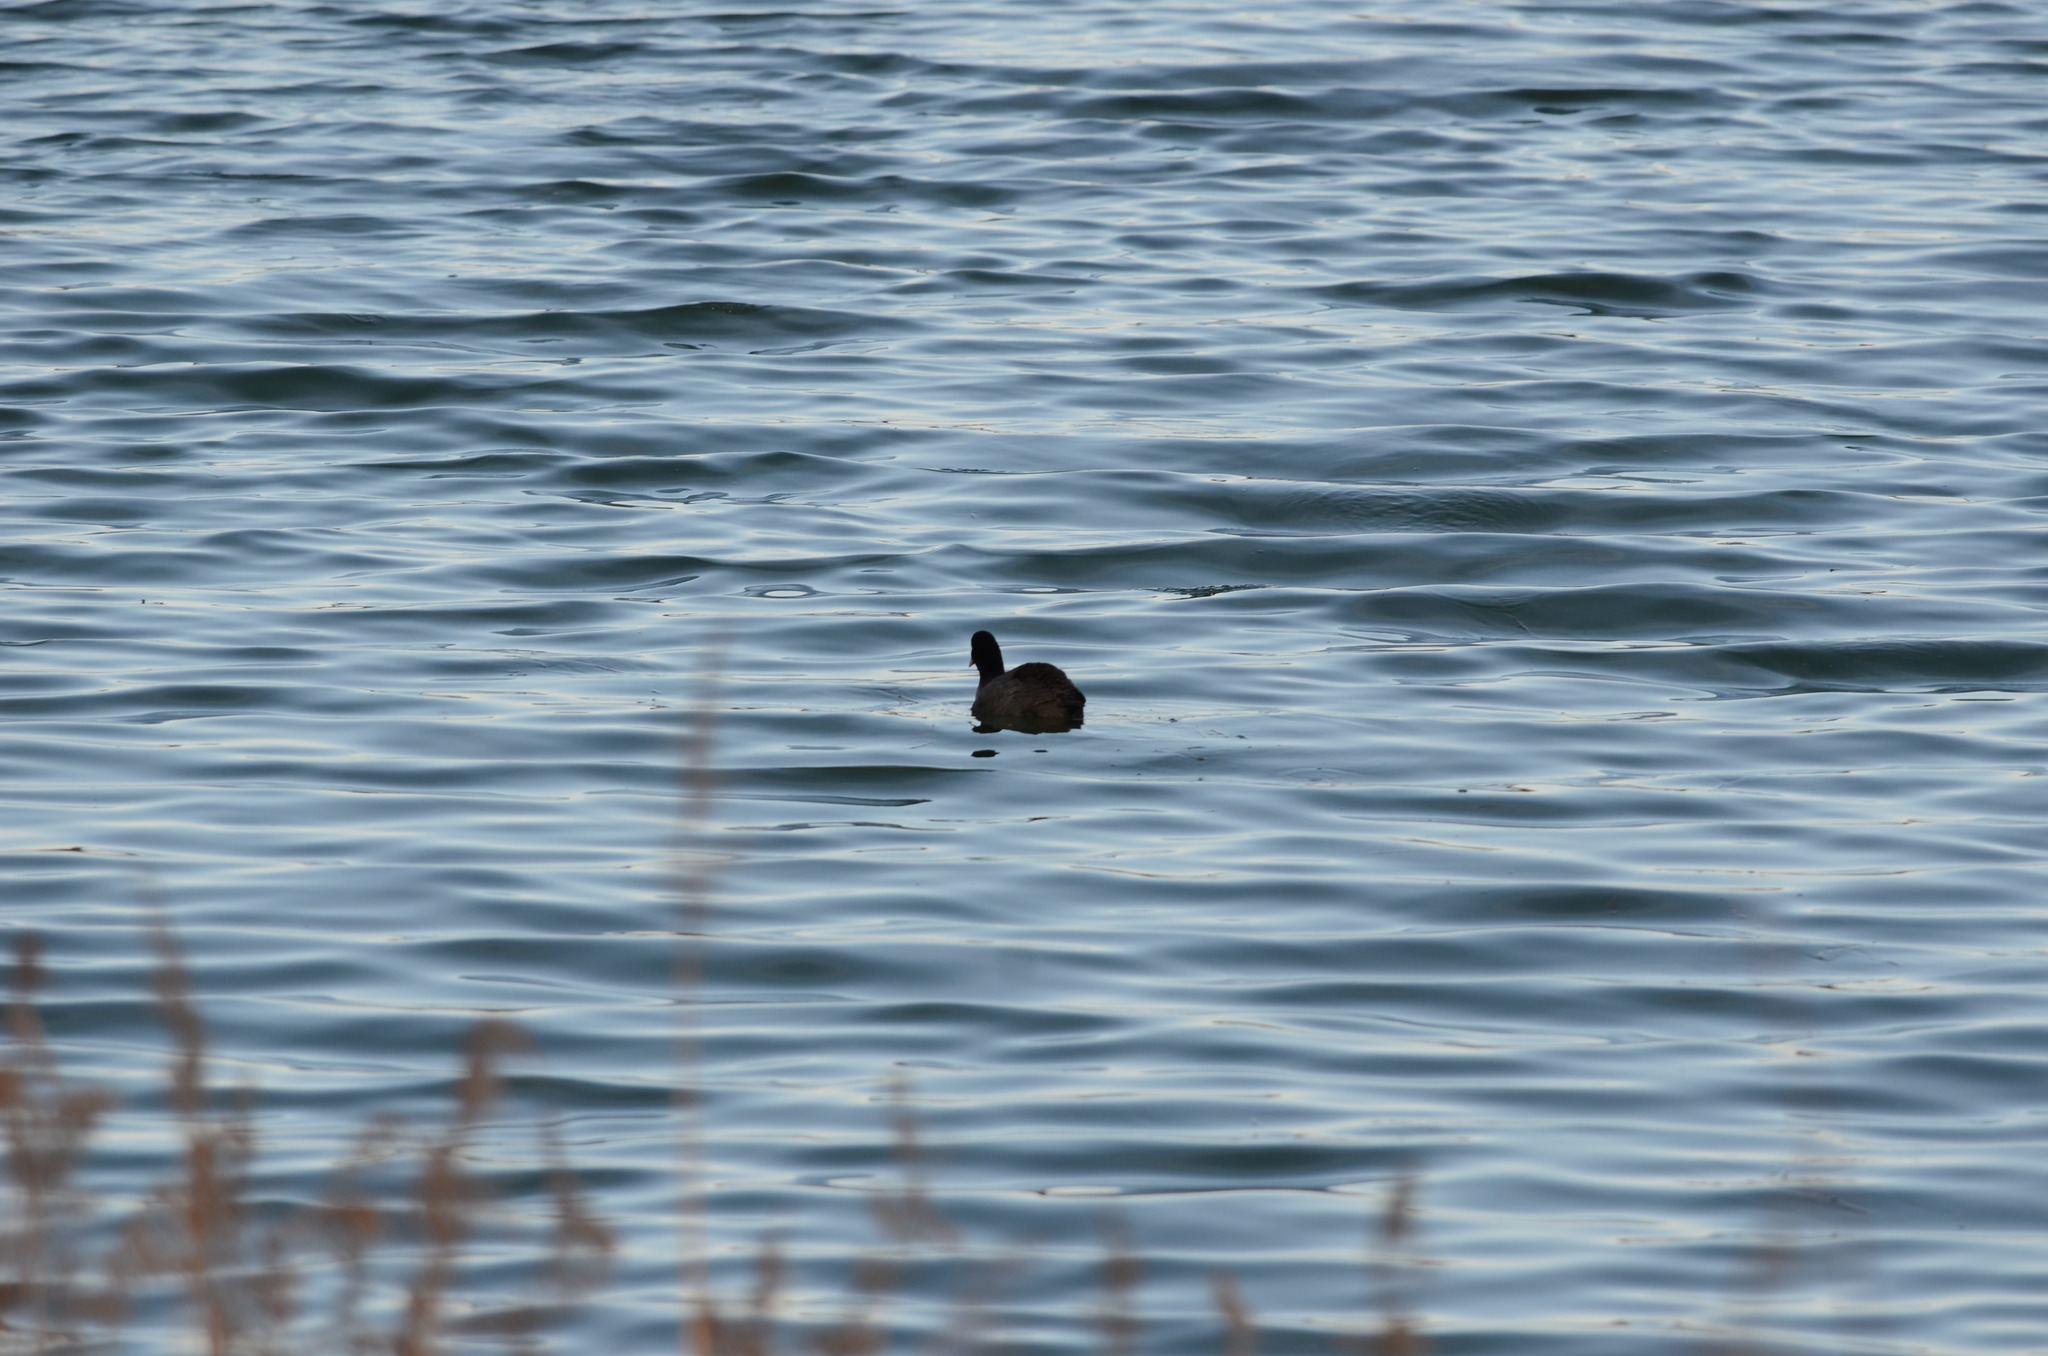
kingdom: Animalia
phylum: Chordata
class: Aves
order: Gruiformes
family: Rallidae
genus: Fulica
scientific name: Fulica atra
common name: Eurasian coot
